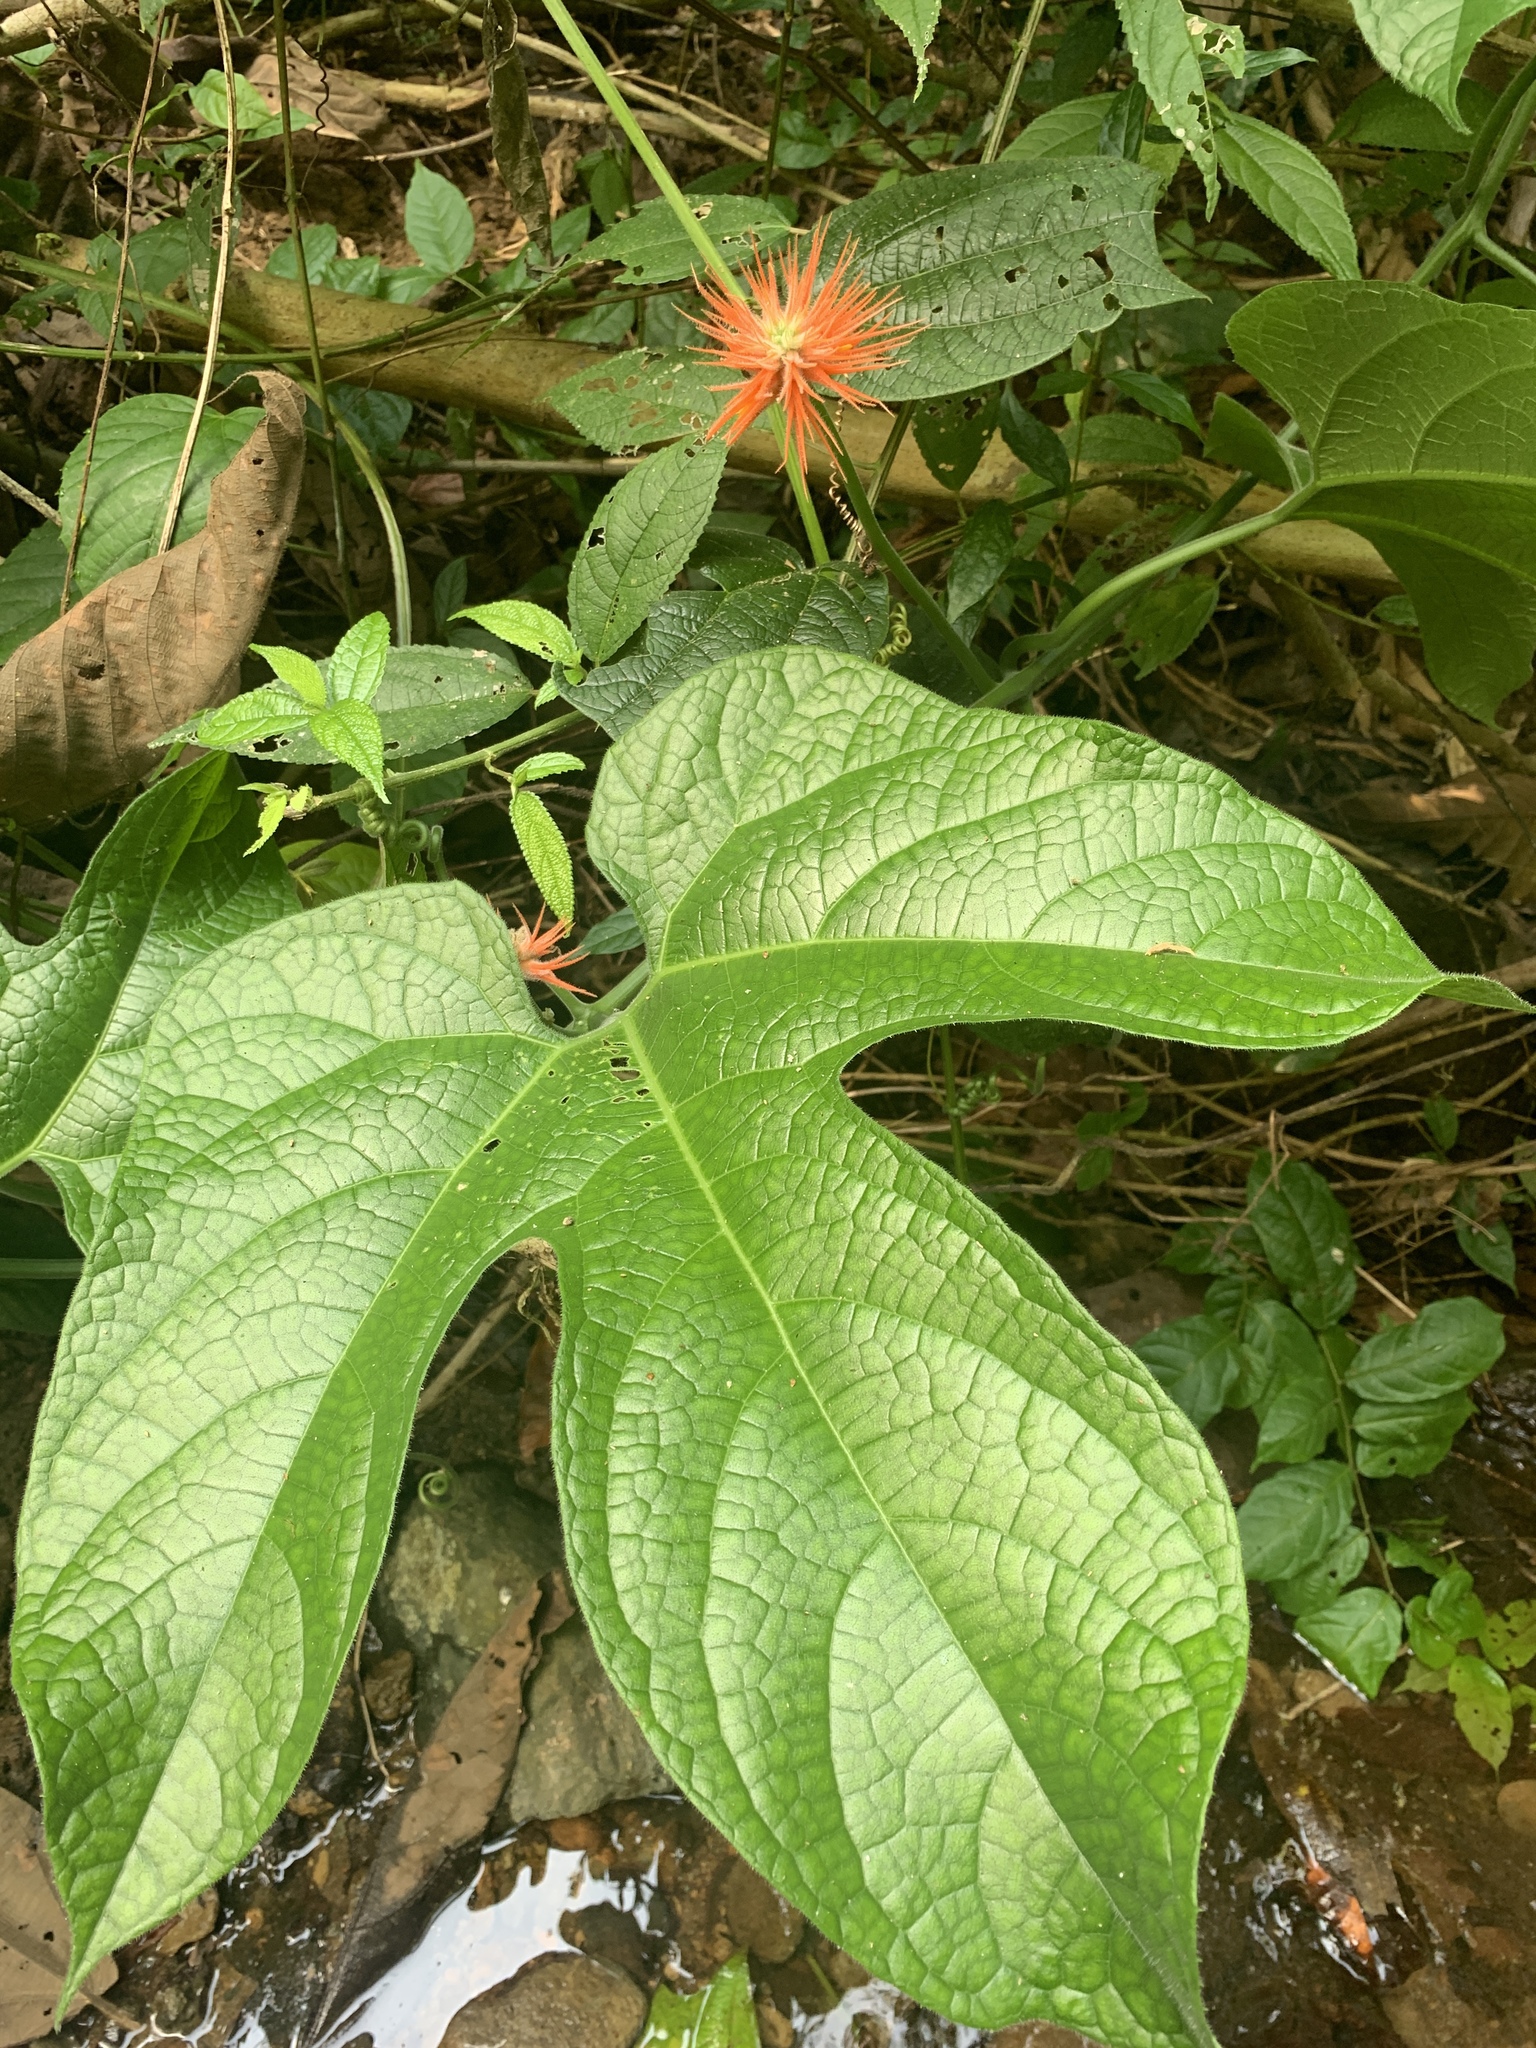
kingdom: Plantae
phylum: Tracheophyta
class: Magnoliopsida
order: Cucurbitales
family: Cucurbitaceae
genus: Gurania
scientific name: Gurania makoyana
